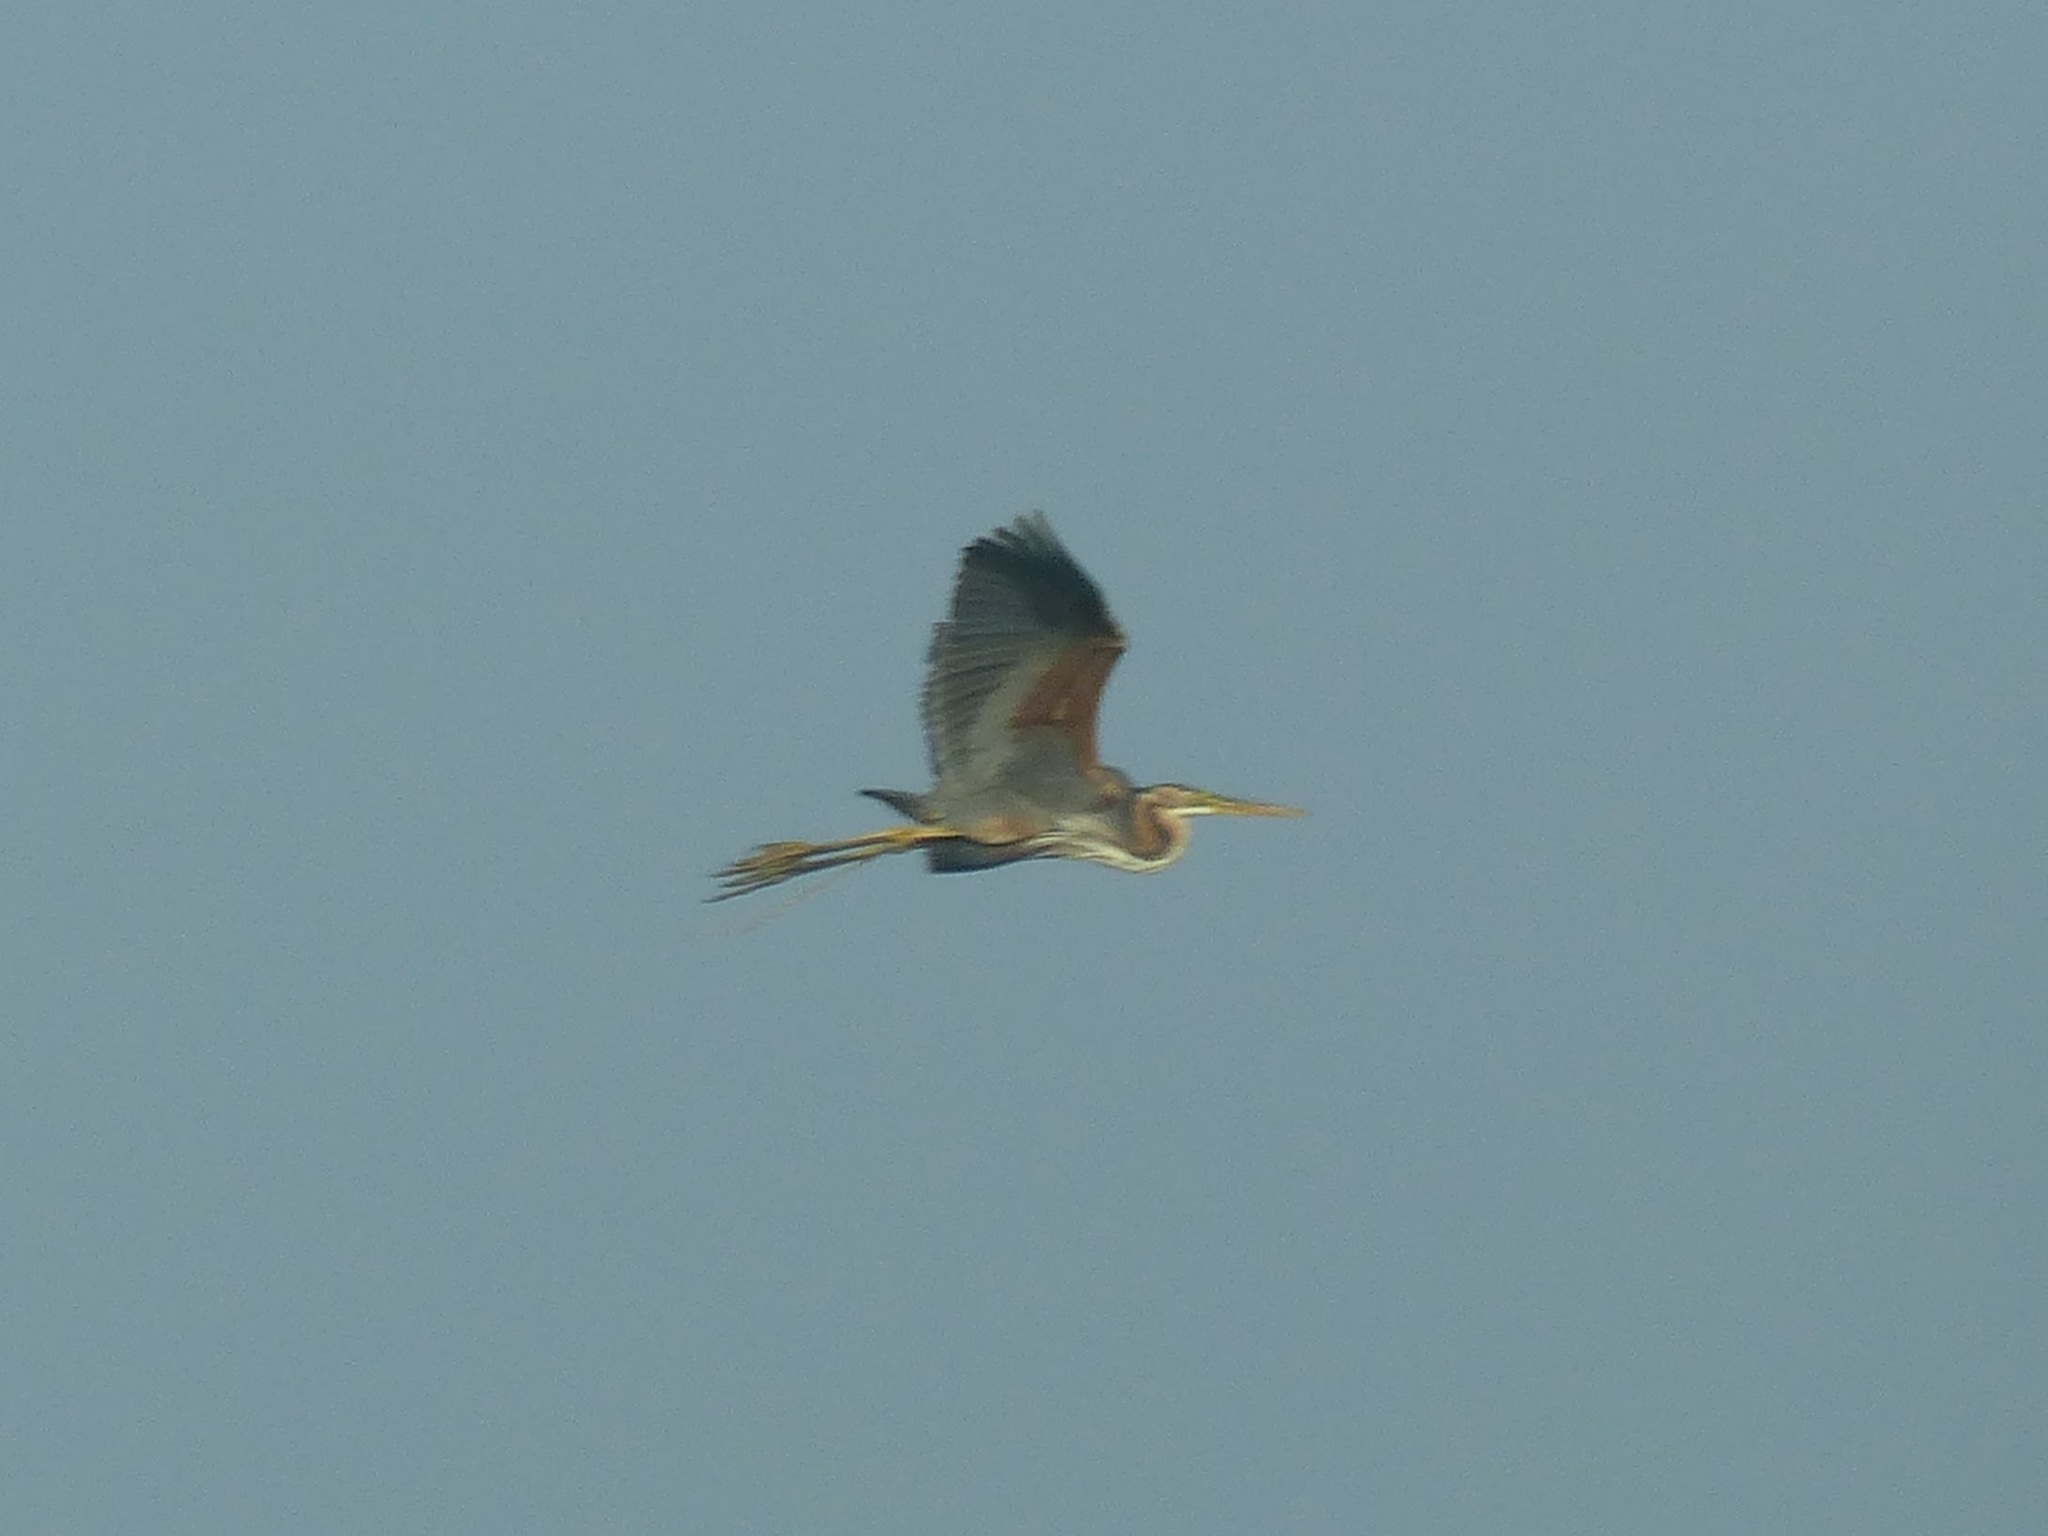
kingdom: Animalia
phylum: Chordata
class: Aves
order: Pelecaniformes
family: Ardeidae
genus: Ardea
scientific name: Ardea purpurea
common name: Purple heron
